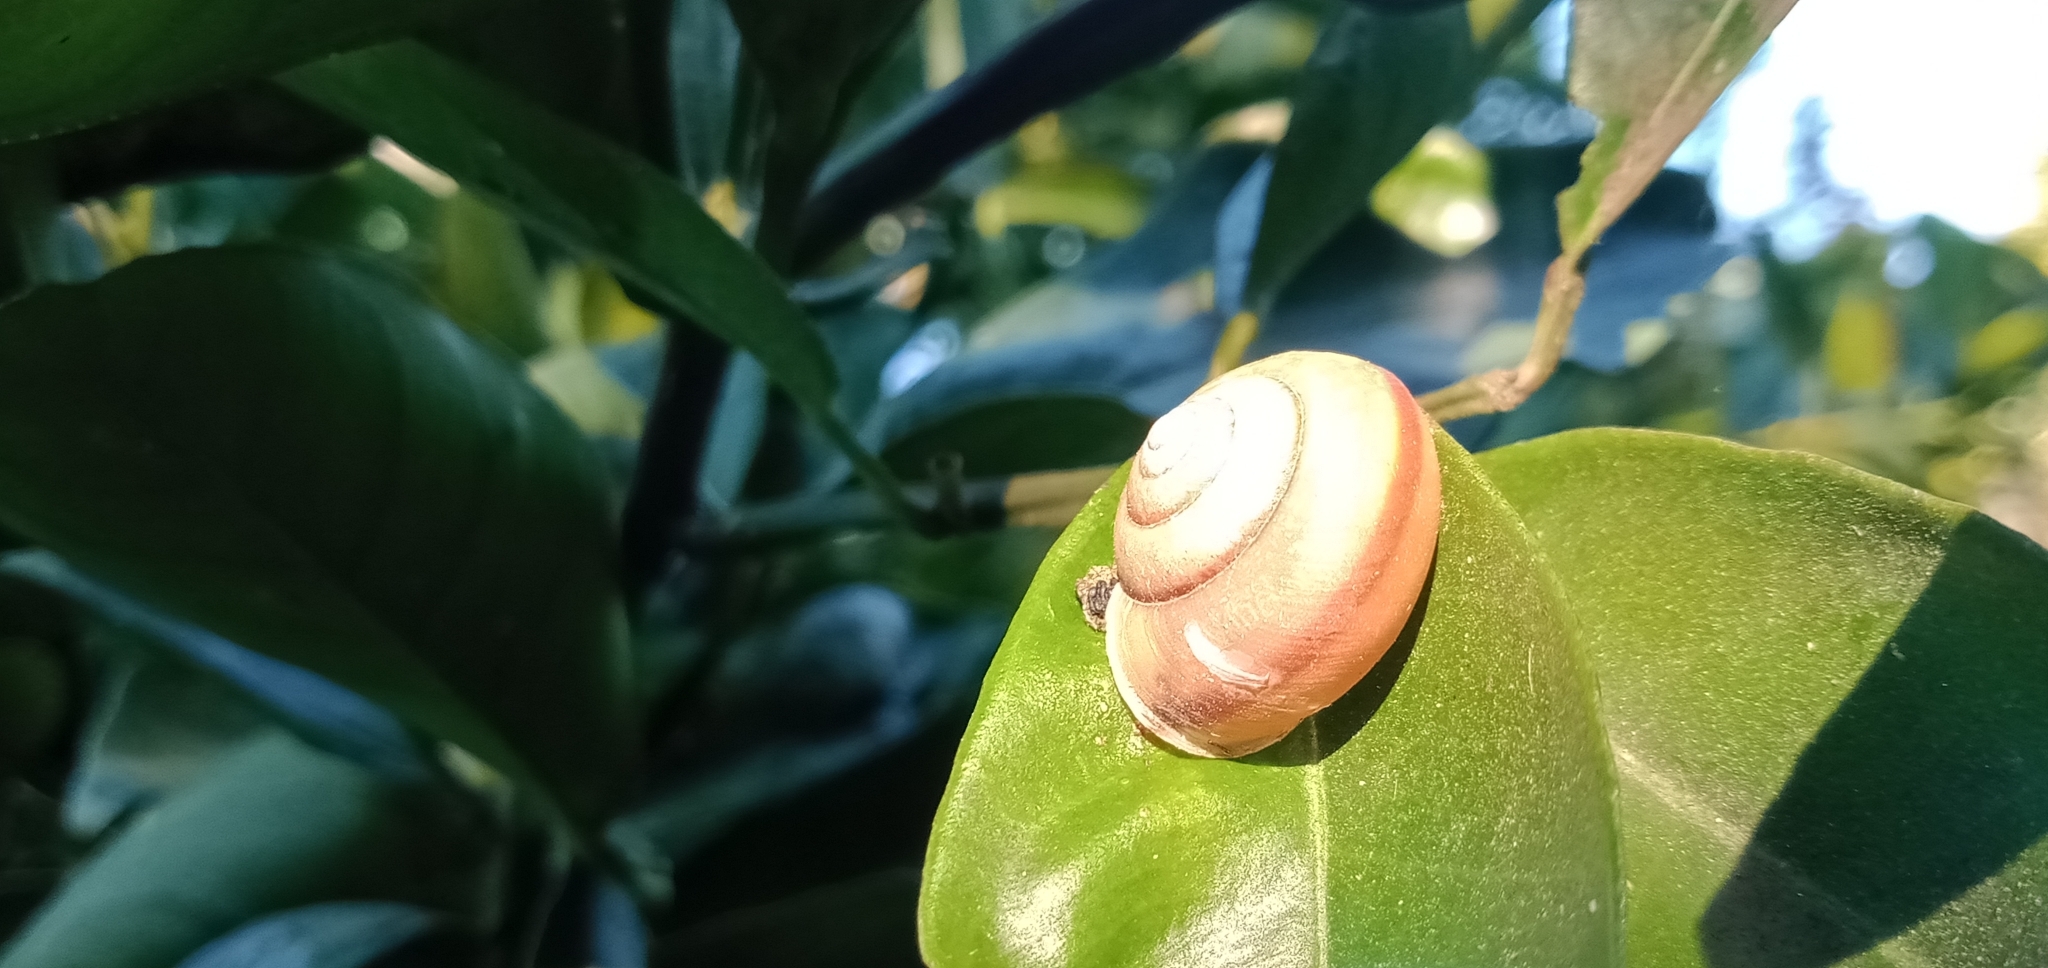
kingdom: Animalia
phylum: Mollusca
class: Gastropoda
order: Stylommatophora
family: Camaenidae
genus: Bradybaena
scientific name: Bradybaena similaris
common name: Asian trampsnail
